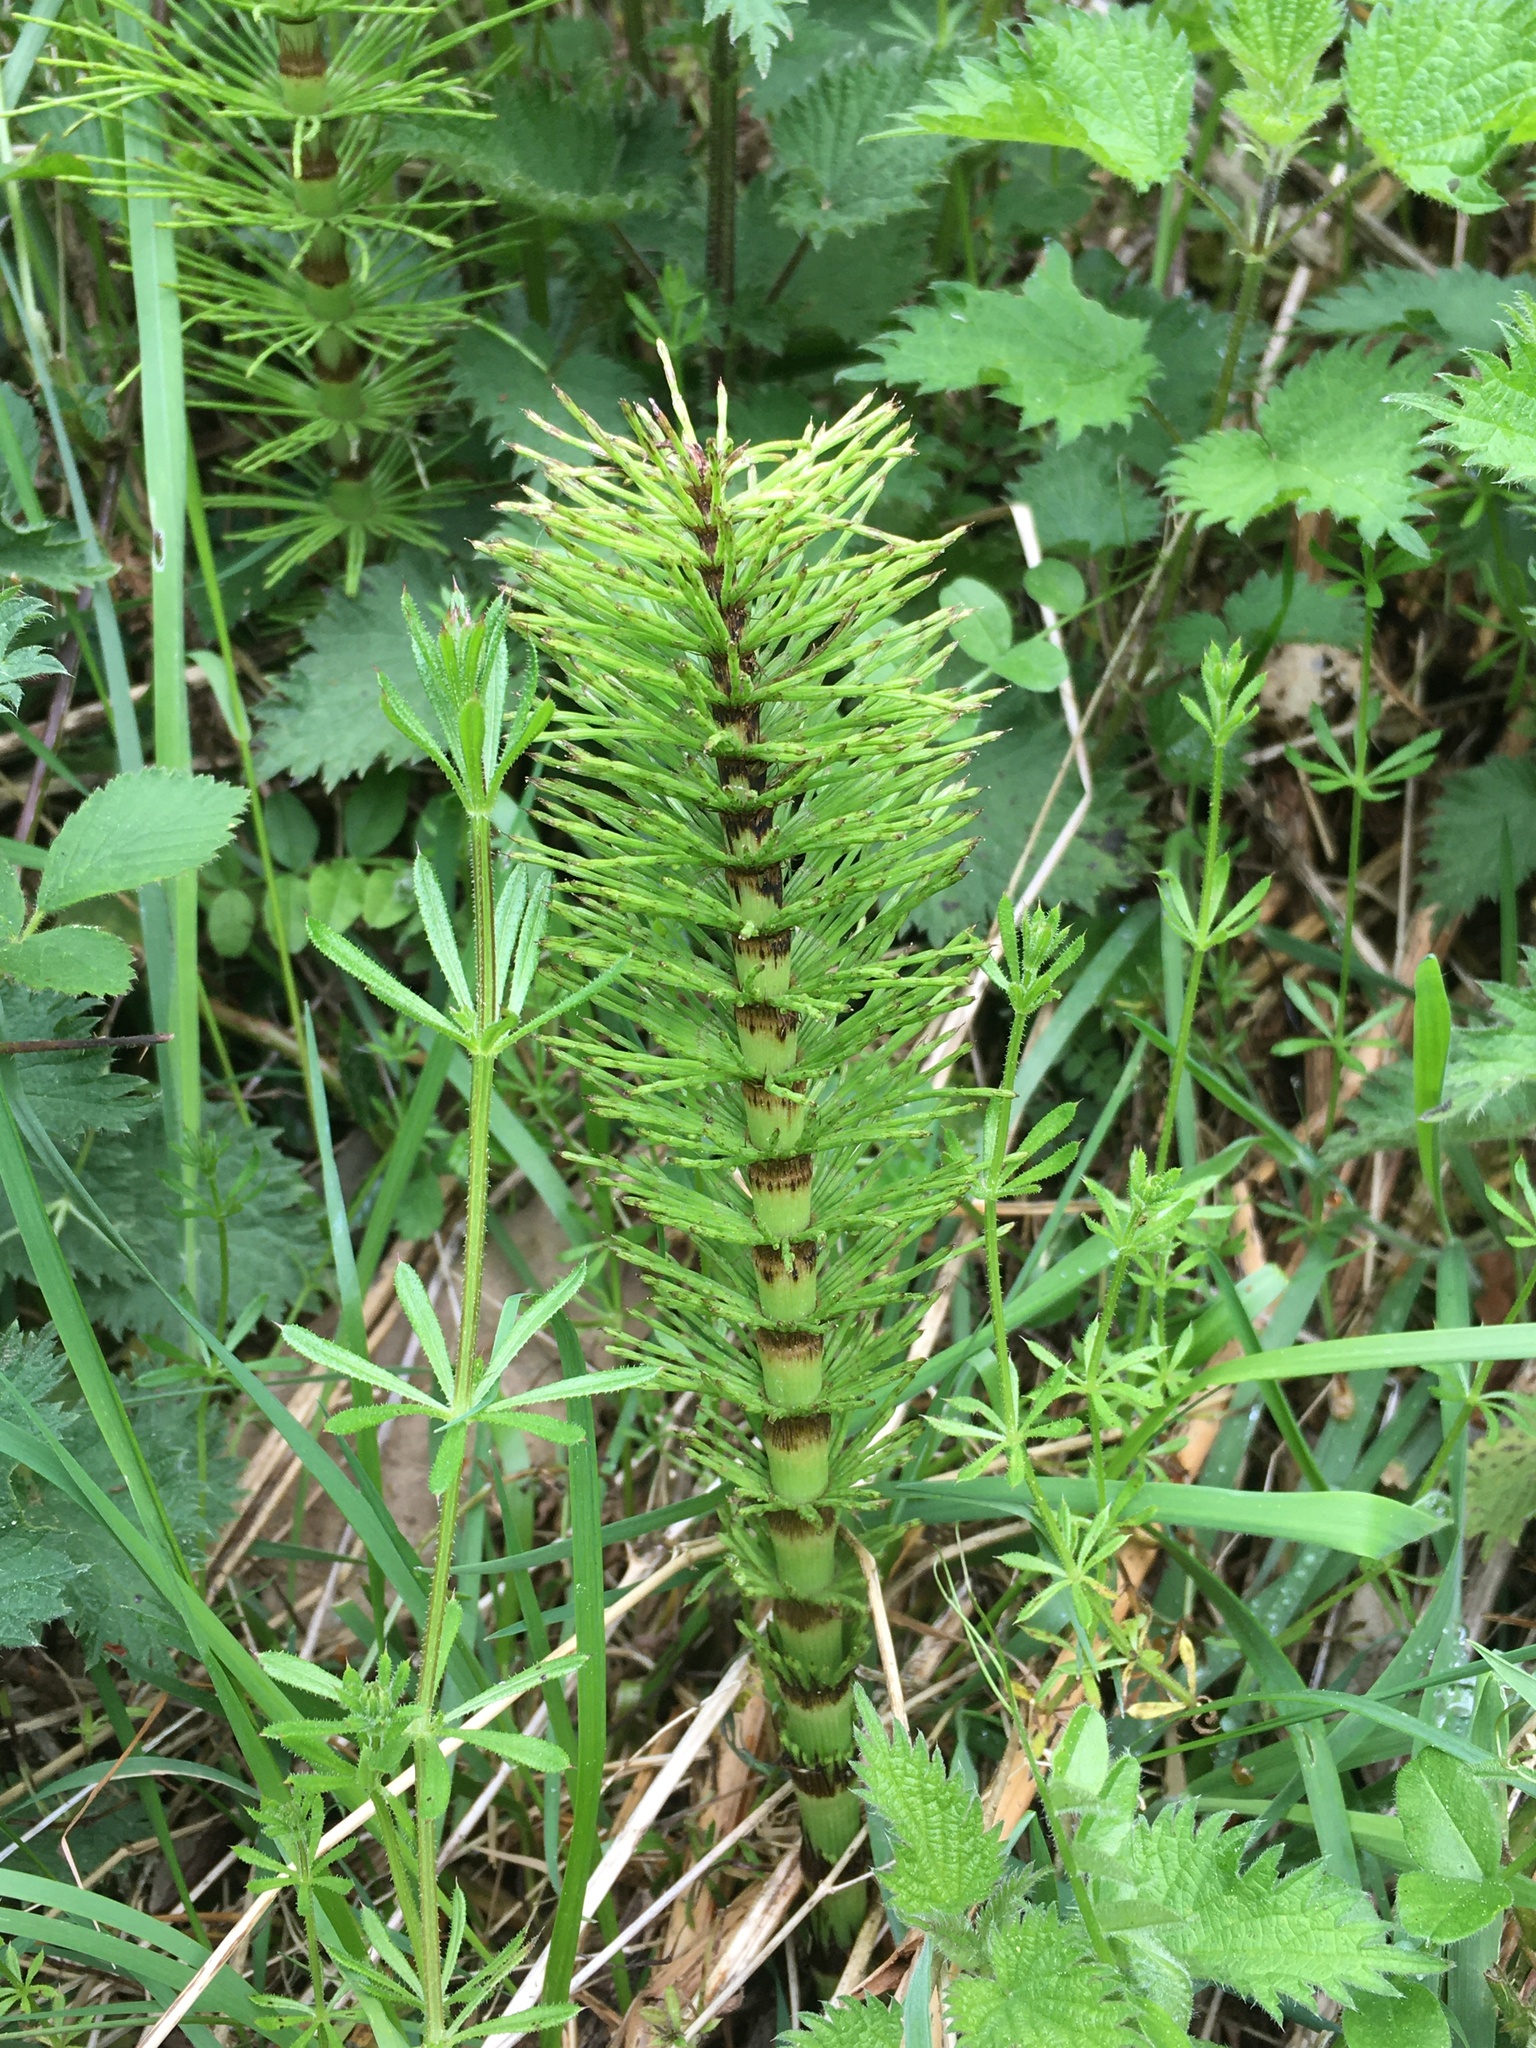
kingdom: Plantae
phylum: Tracheophyta
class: Polypodiopsida
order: Equisetales
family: Equisetaceae
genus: Equisetum
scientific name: Equisetum telmateia
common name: Great horsetail
